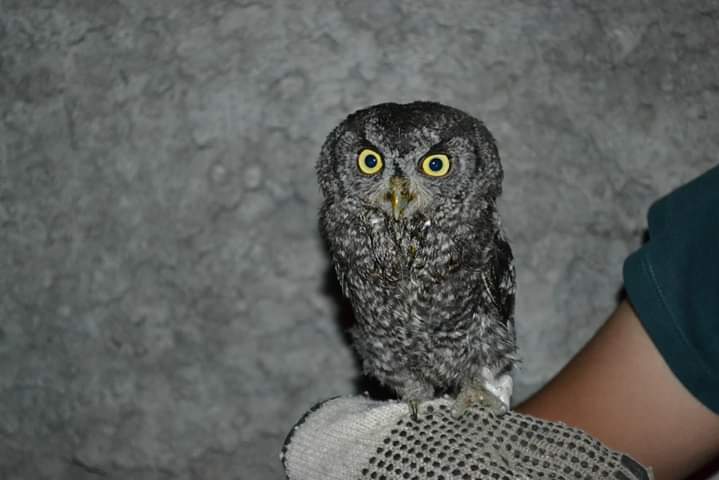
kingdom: Animalia
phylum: Chordata
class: Aves
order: Strigiformes
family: Strigidae
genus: Megascops
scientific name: Megascops kennicottii
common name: Western screech-owl
